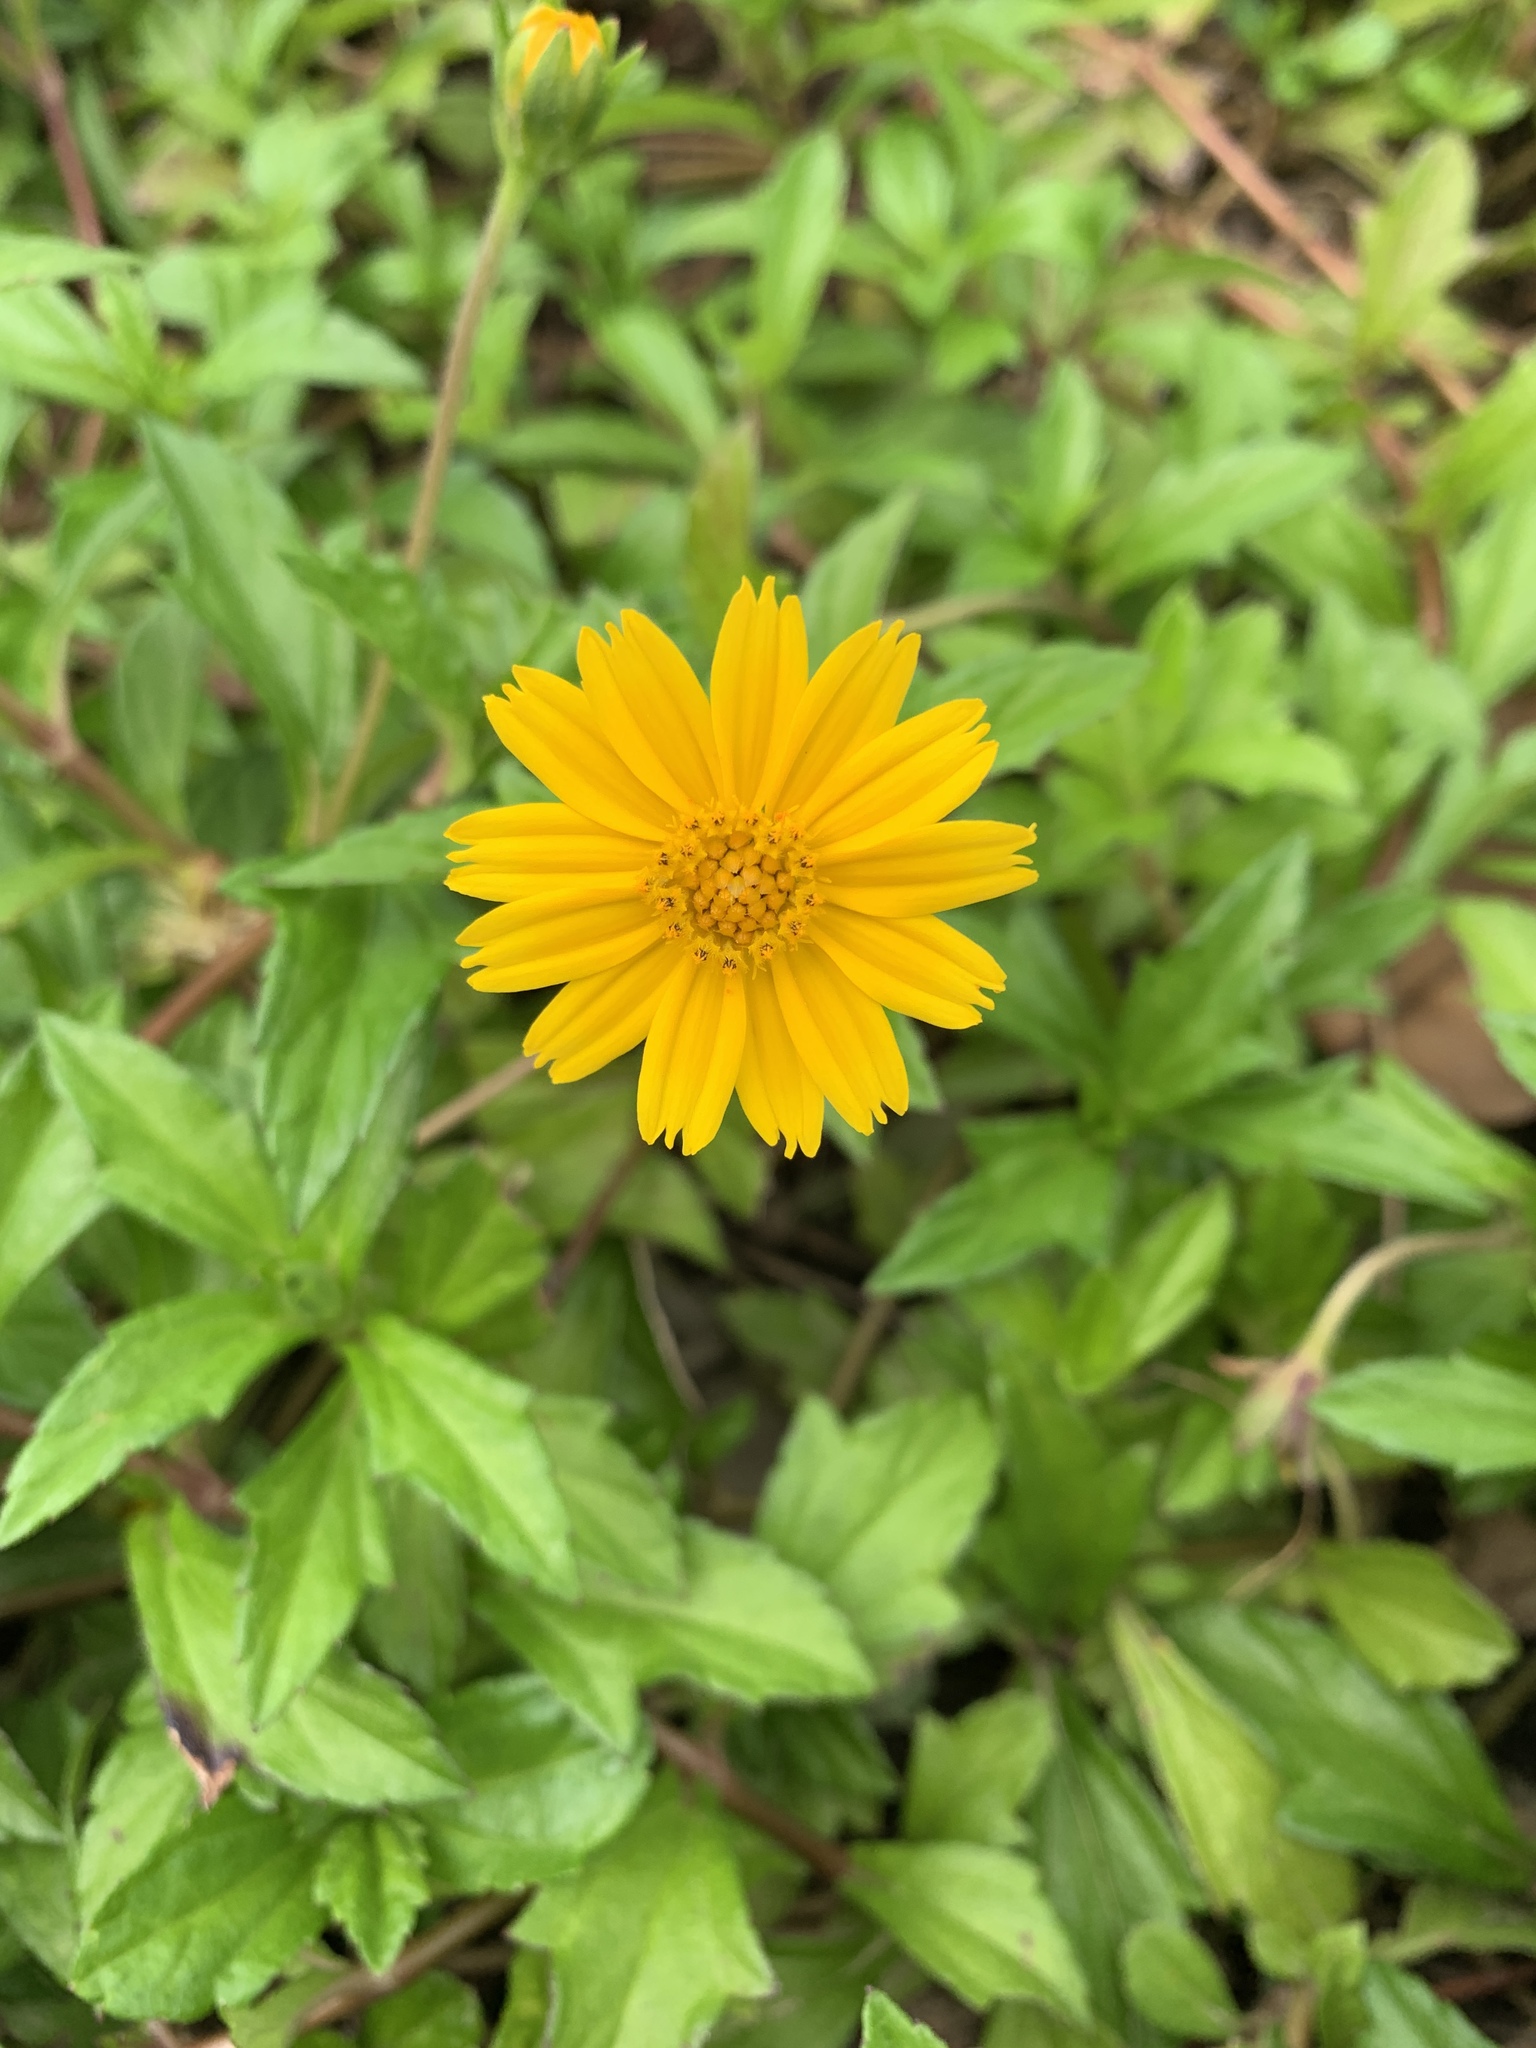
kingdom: Plantae
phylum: Tracheophyta
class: Magnoliopsida
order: Asterales
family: Asteraceae
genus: Sphagneticola
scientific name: Sphagneticola trilobata
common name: Bay biscayne creeping-oxeye
